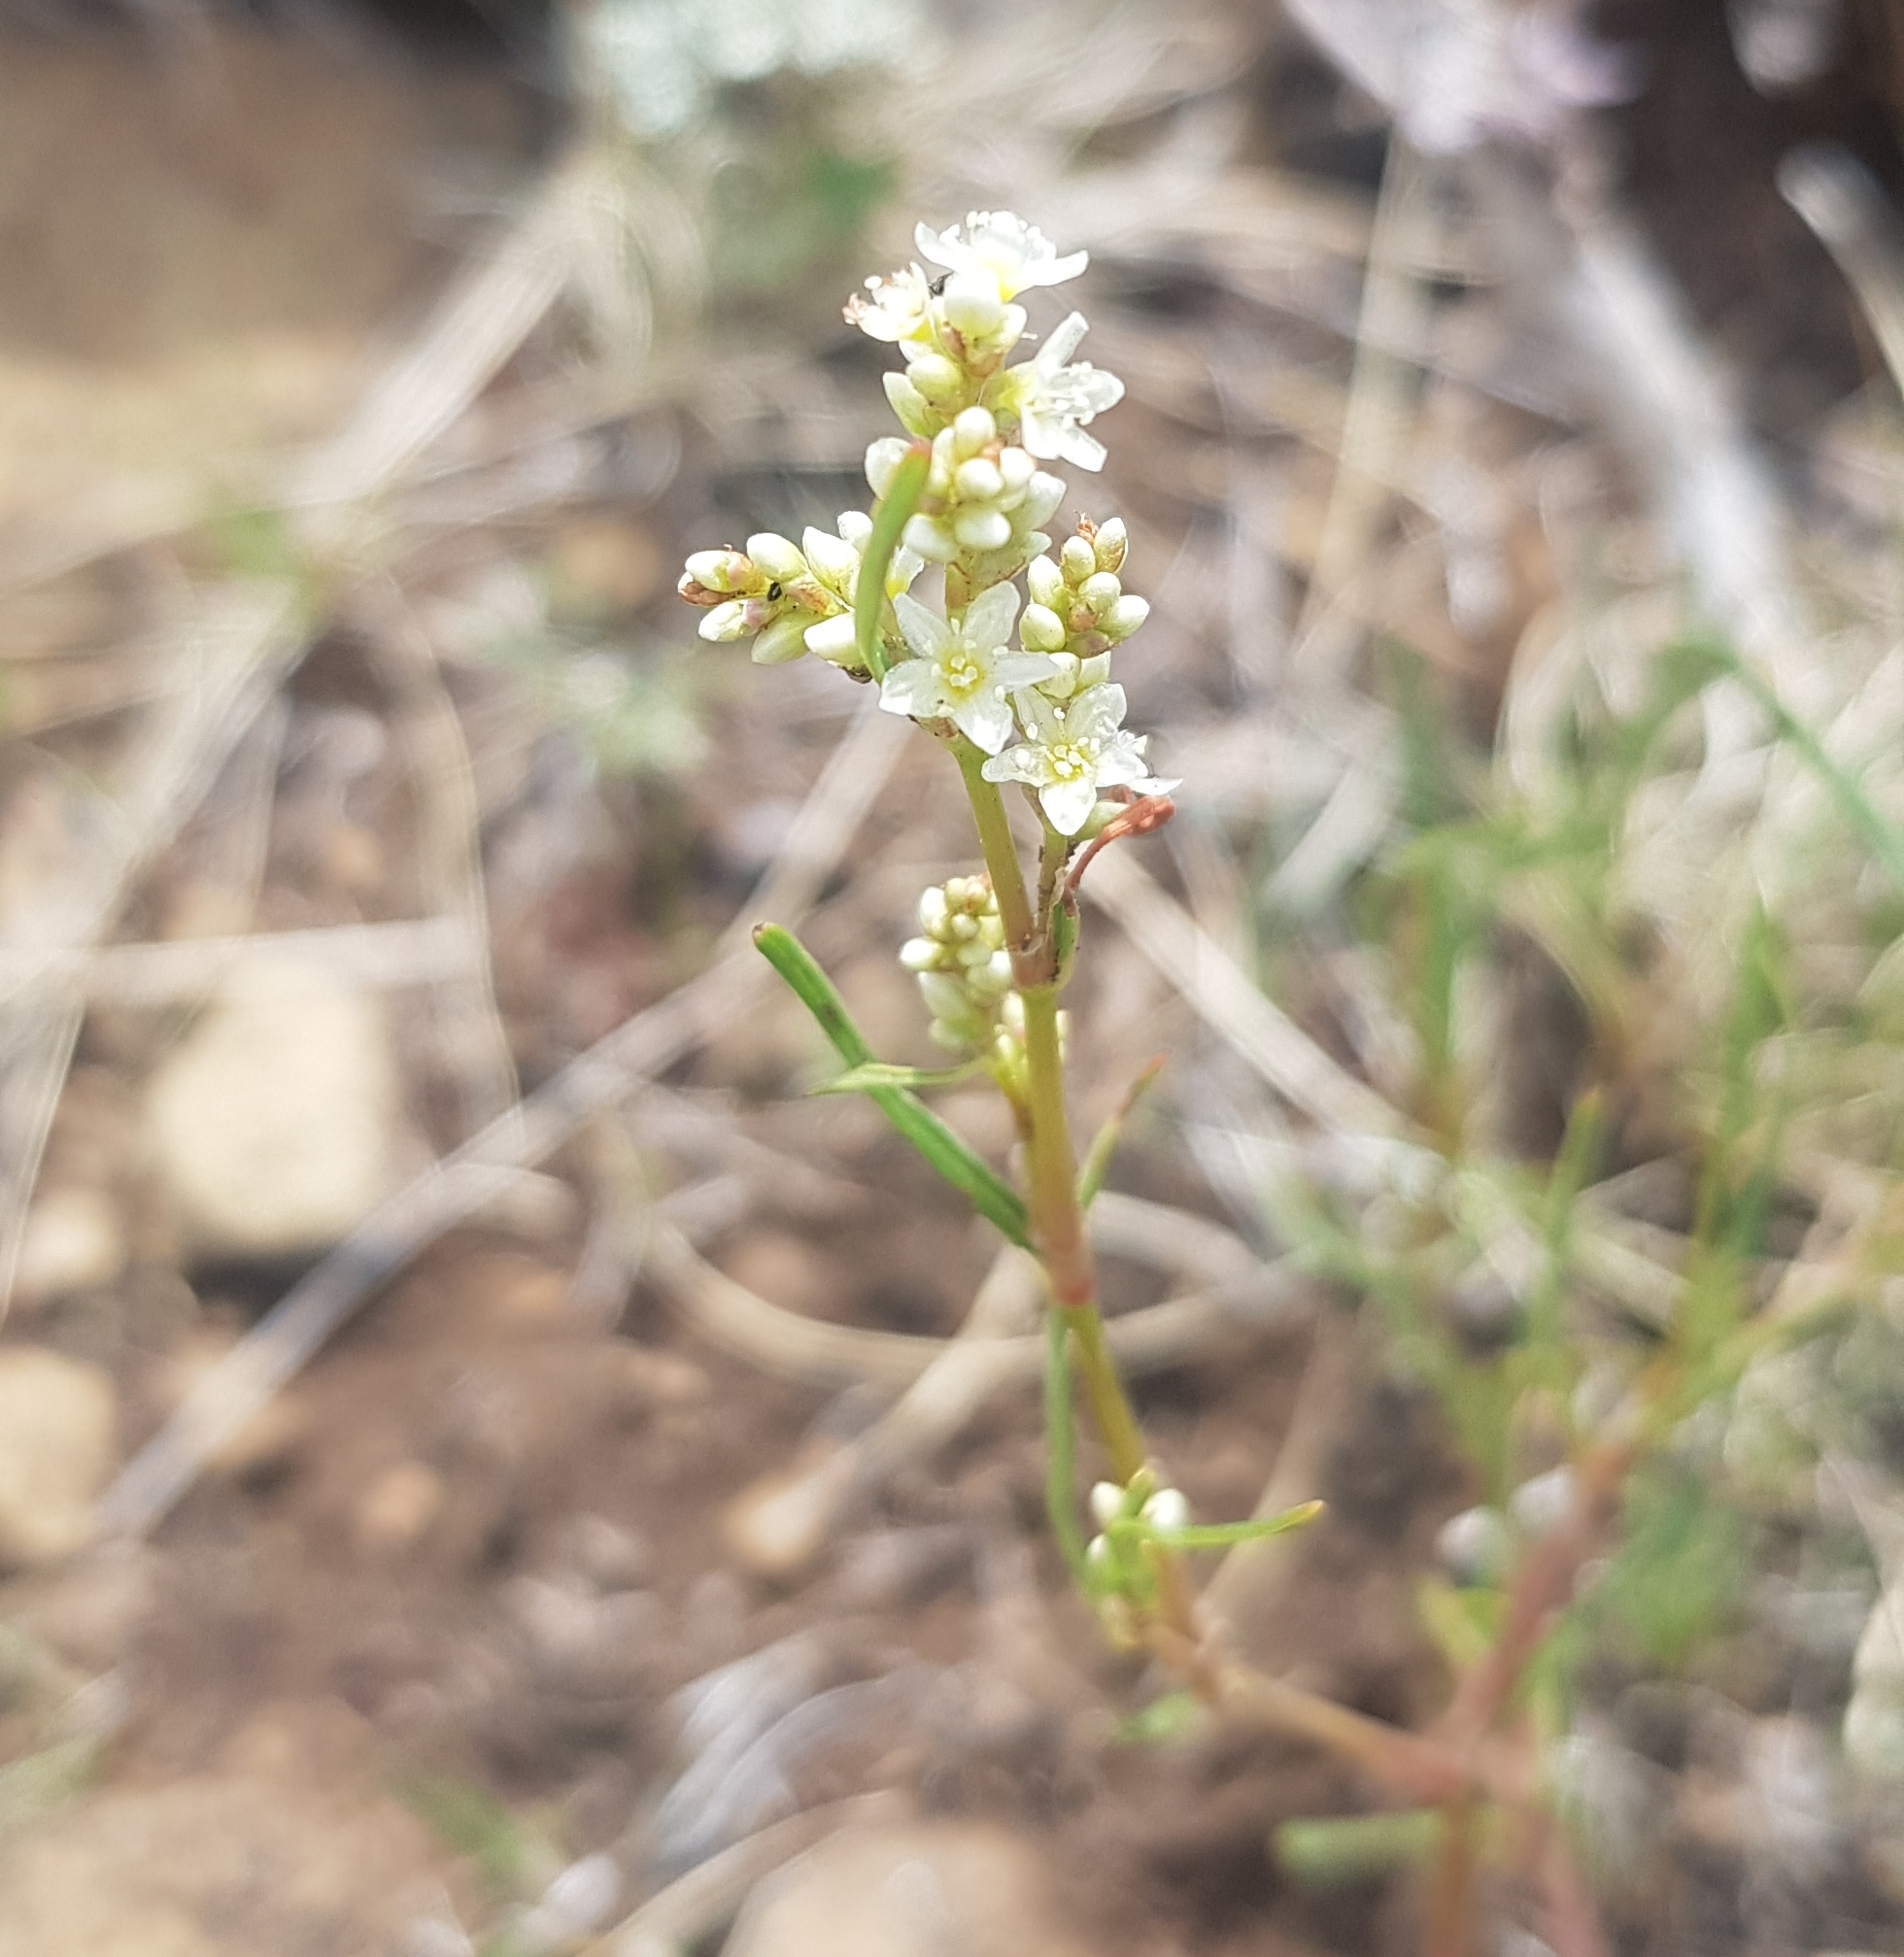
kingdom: Plantae
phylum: Tracheophyta
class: Magnoliopsida
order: Caryophyllales
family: Polygonaceae
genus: Koenigia
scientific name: Koenigia divaricata
